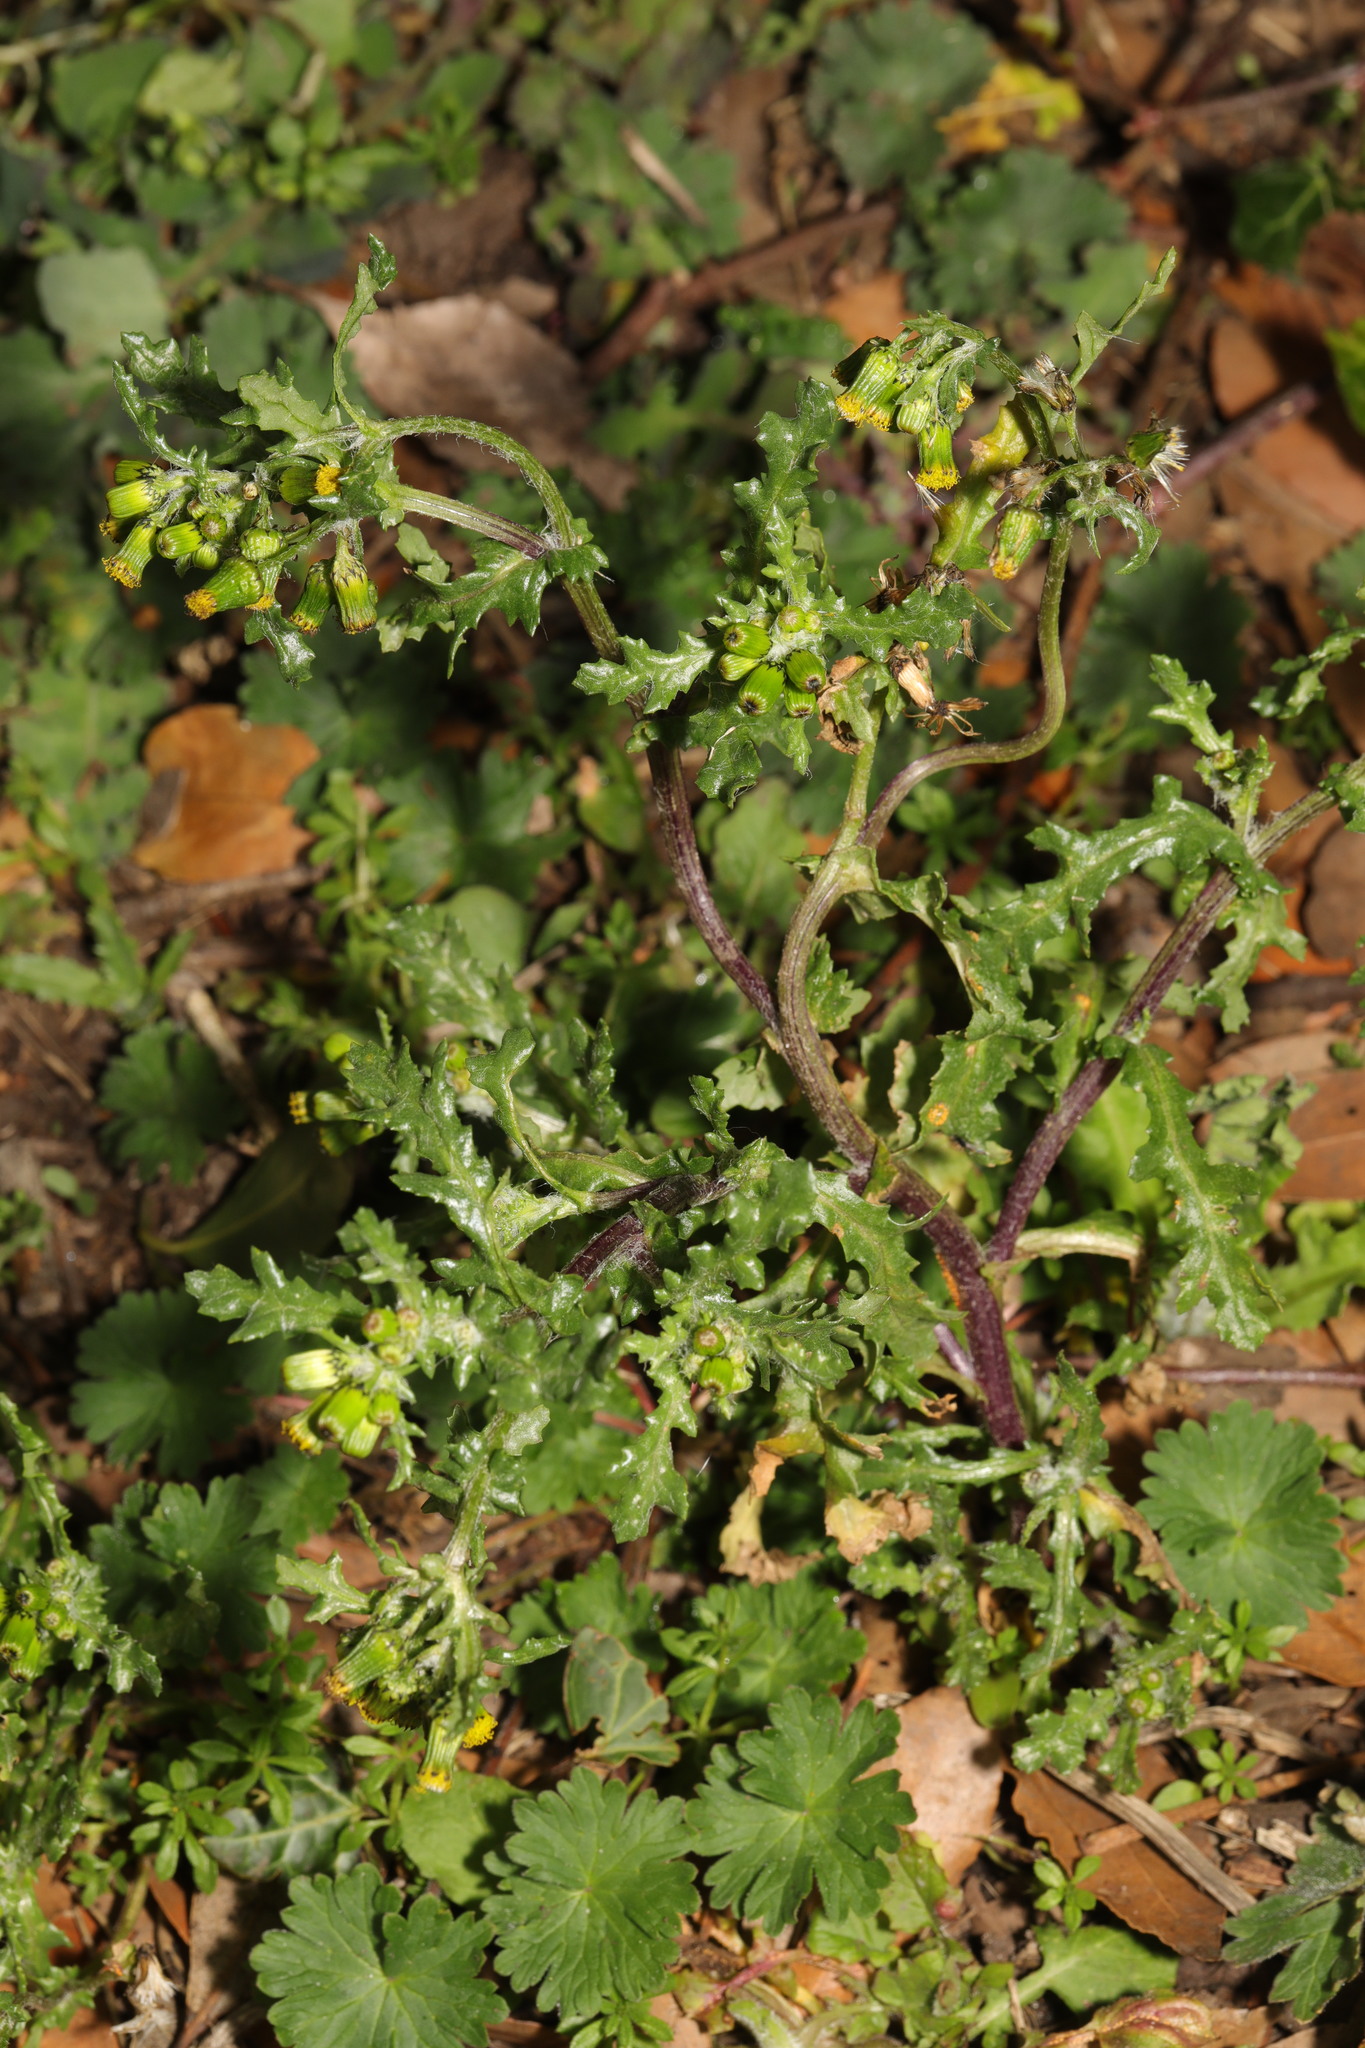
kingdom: Plantae
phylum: Tracheophyta
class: Magnoliopsida
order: Asterales
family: Asteraceae
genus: Senecio
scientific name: Senecio vulgaris
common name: Old-man-in-the-spring
